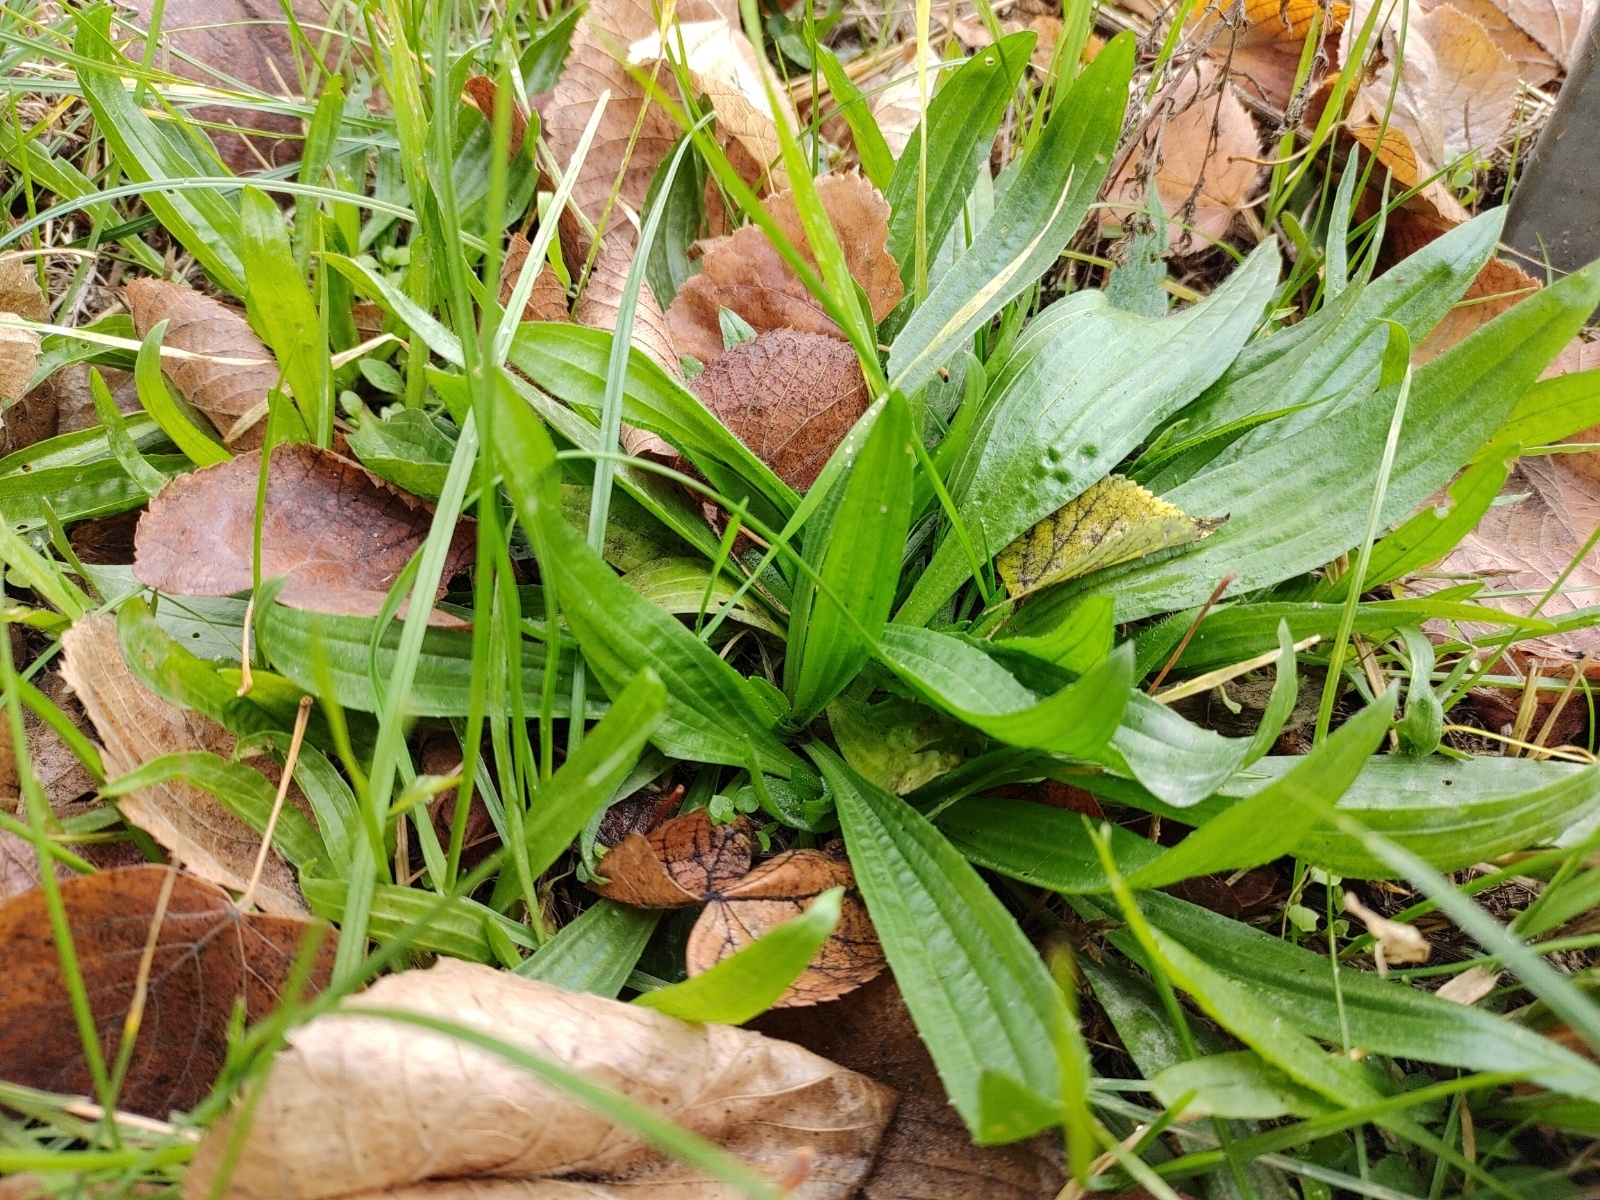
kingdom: Plantae
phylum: Tracheophyta
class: Magnoliopsida
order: Lamiales
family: Plantaginaceae
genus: Plantago
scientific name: Plantago lanceolata
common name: Ribwort plantain
